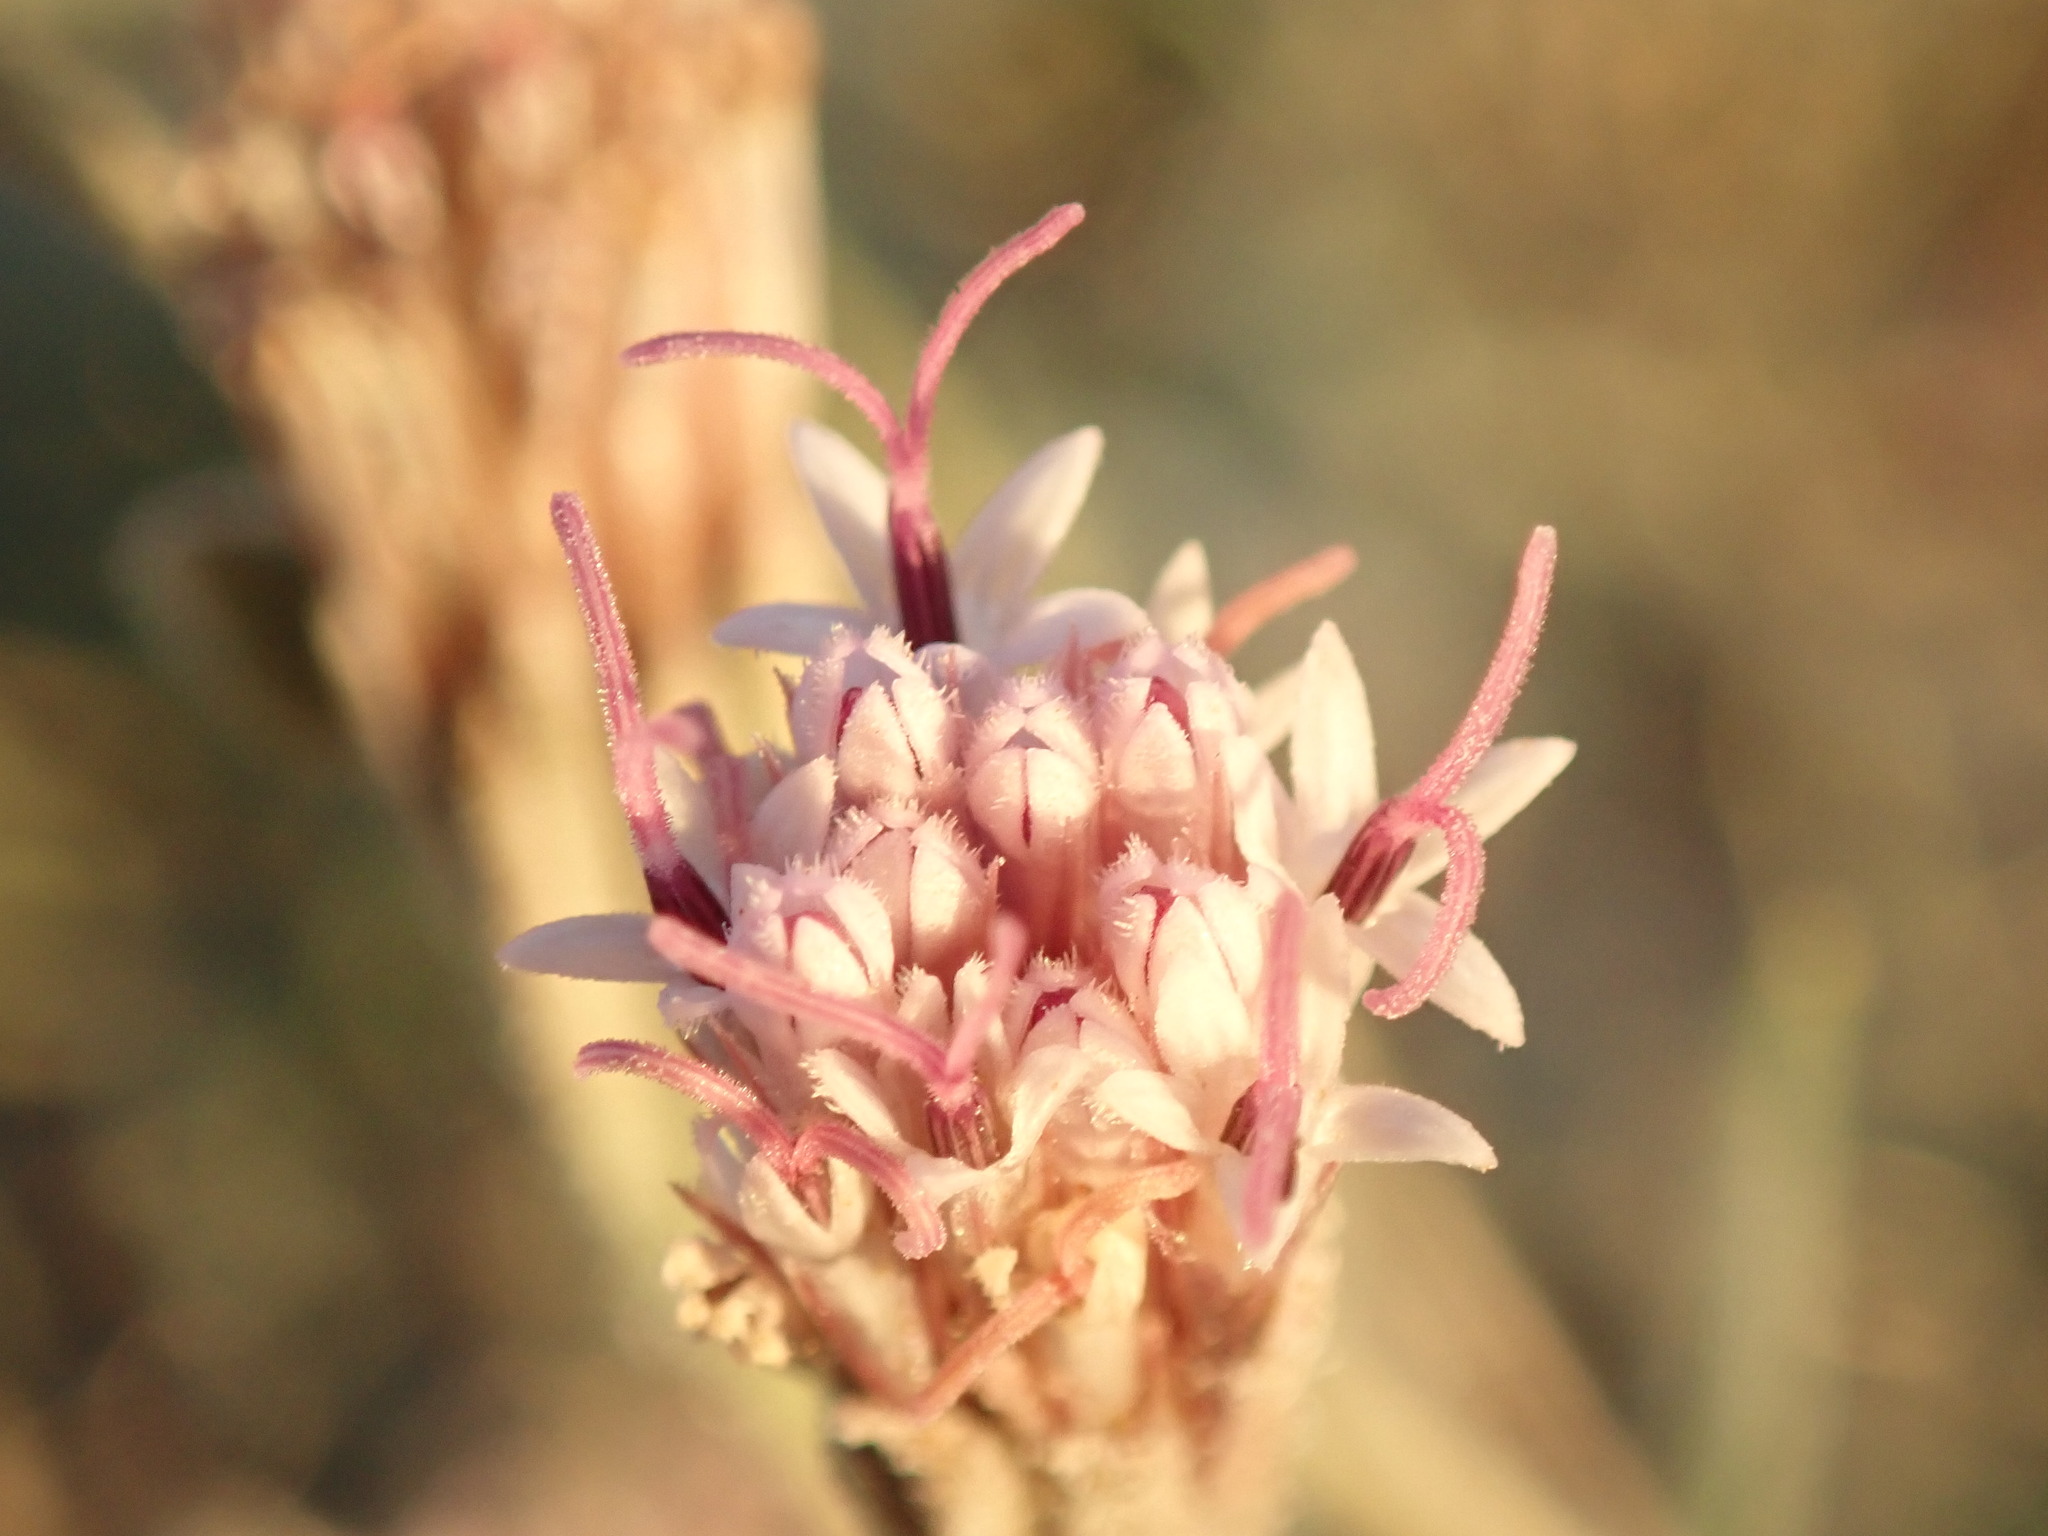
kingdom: Plantae
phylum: Tracheophyta
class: Magnoliopsida
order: Asterales
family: Asteraceae
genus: Palafoxia
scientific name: Palafoxia arida
